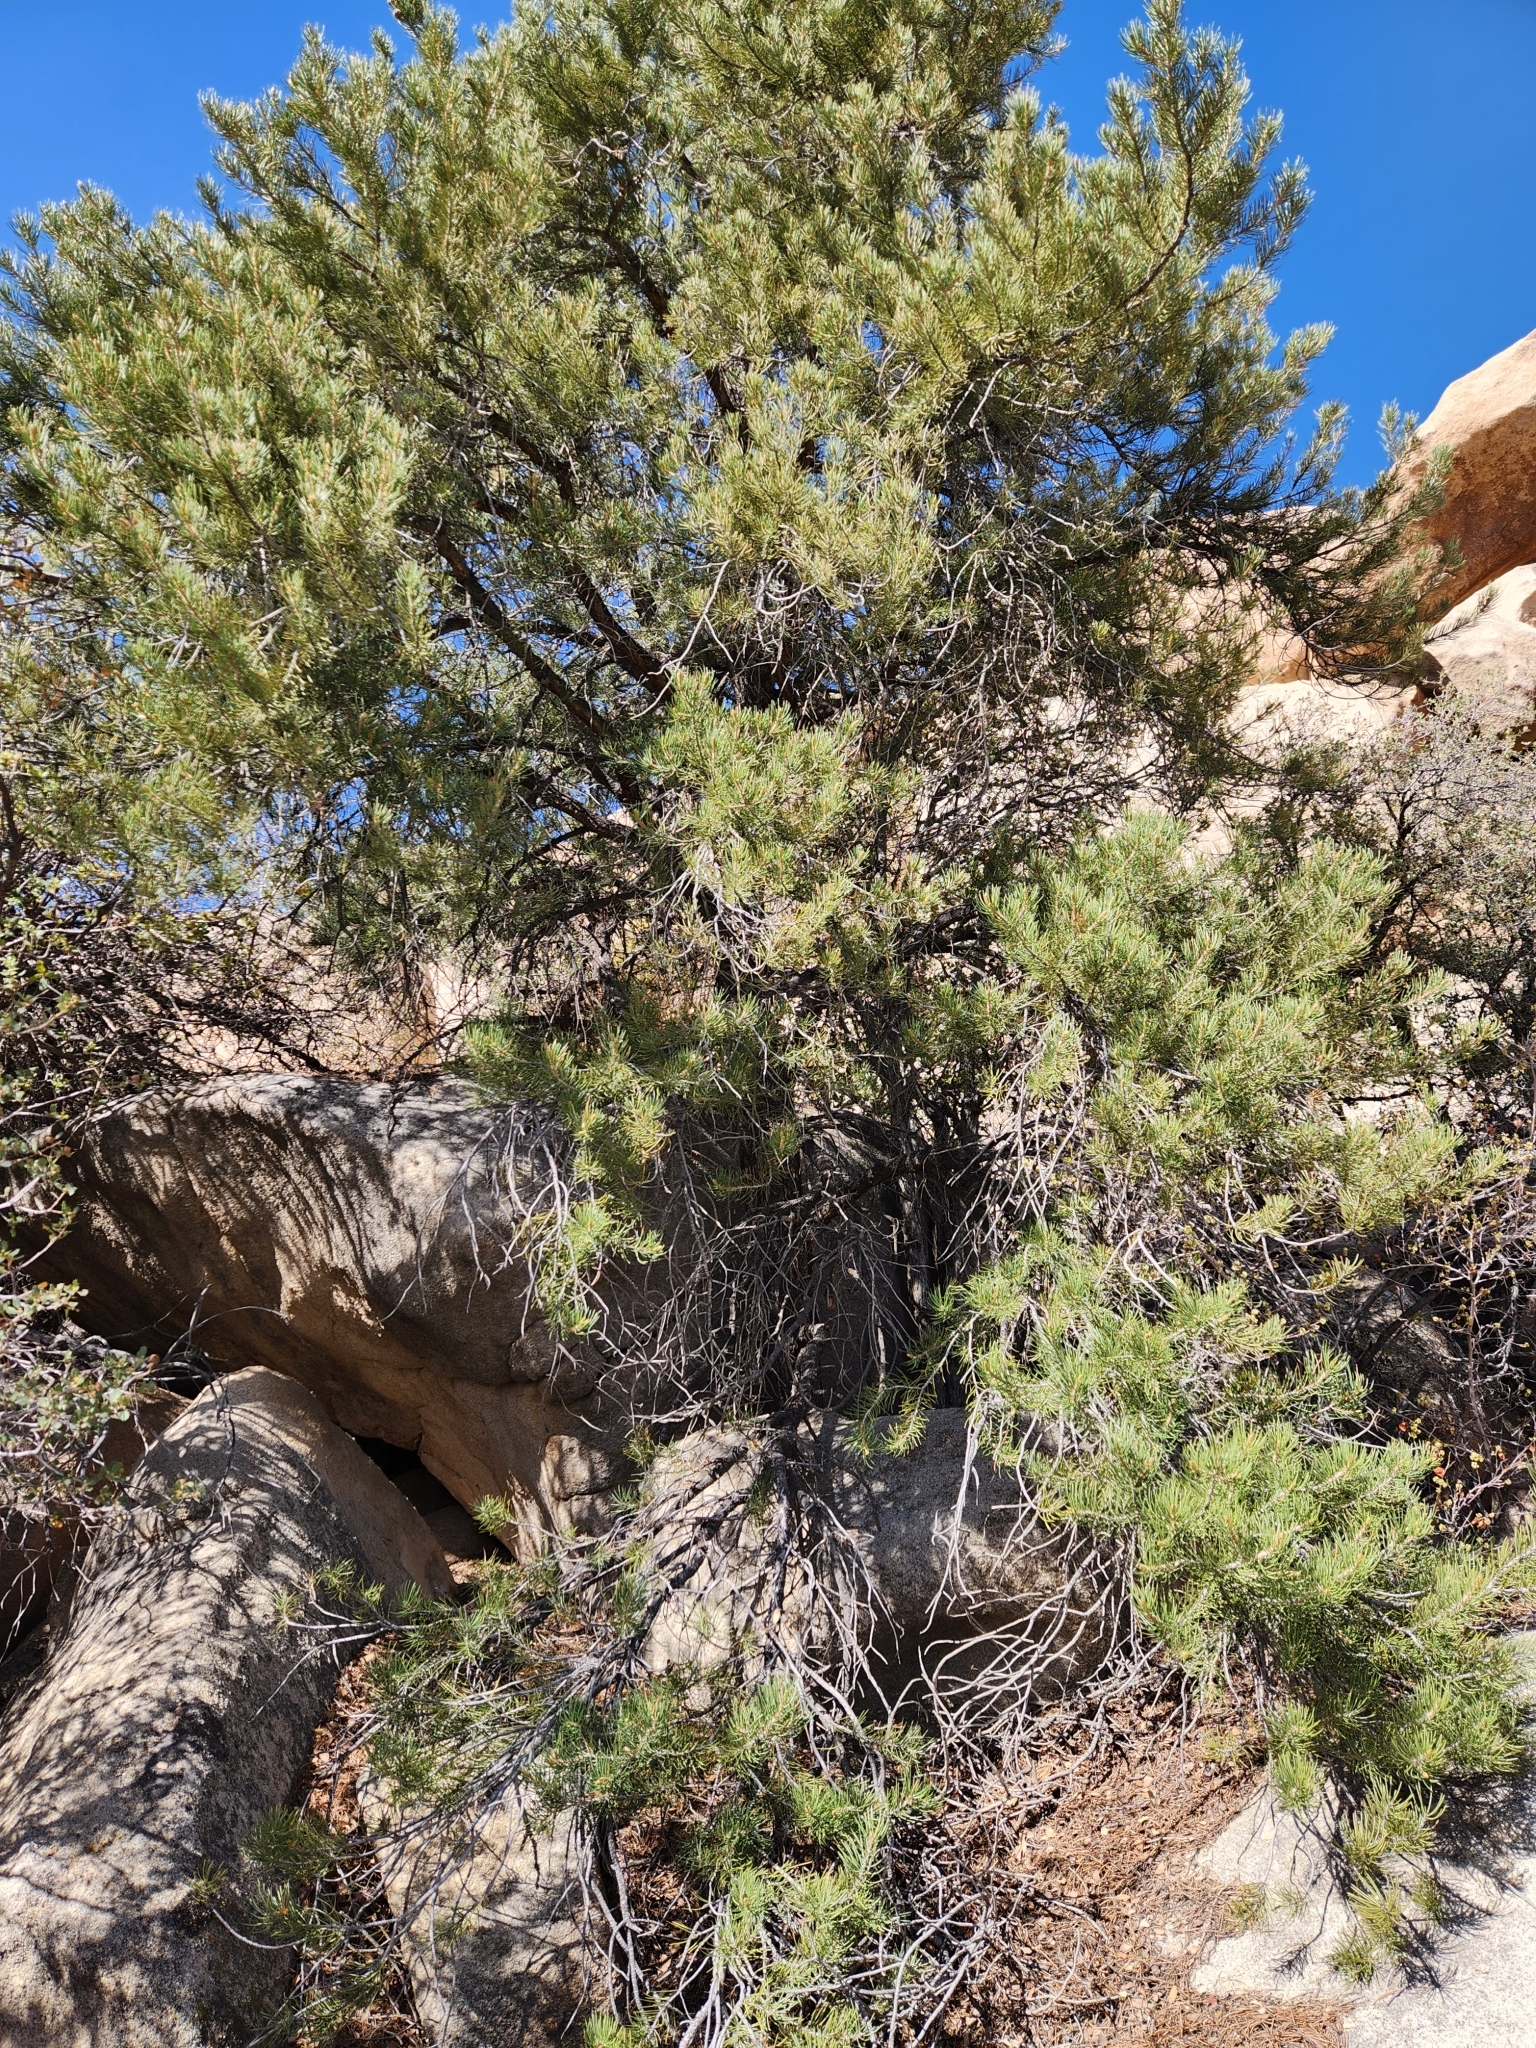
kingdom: Plantae
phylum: Tracheophyta
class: Pinopsida
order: Pinales
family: Pinaceae
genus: Pinus
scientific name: Pinus monophylla
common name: One-leaved nut pine
